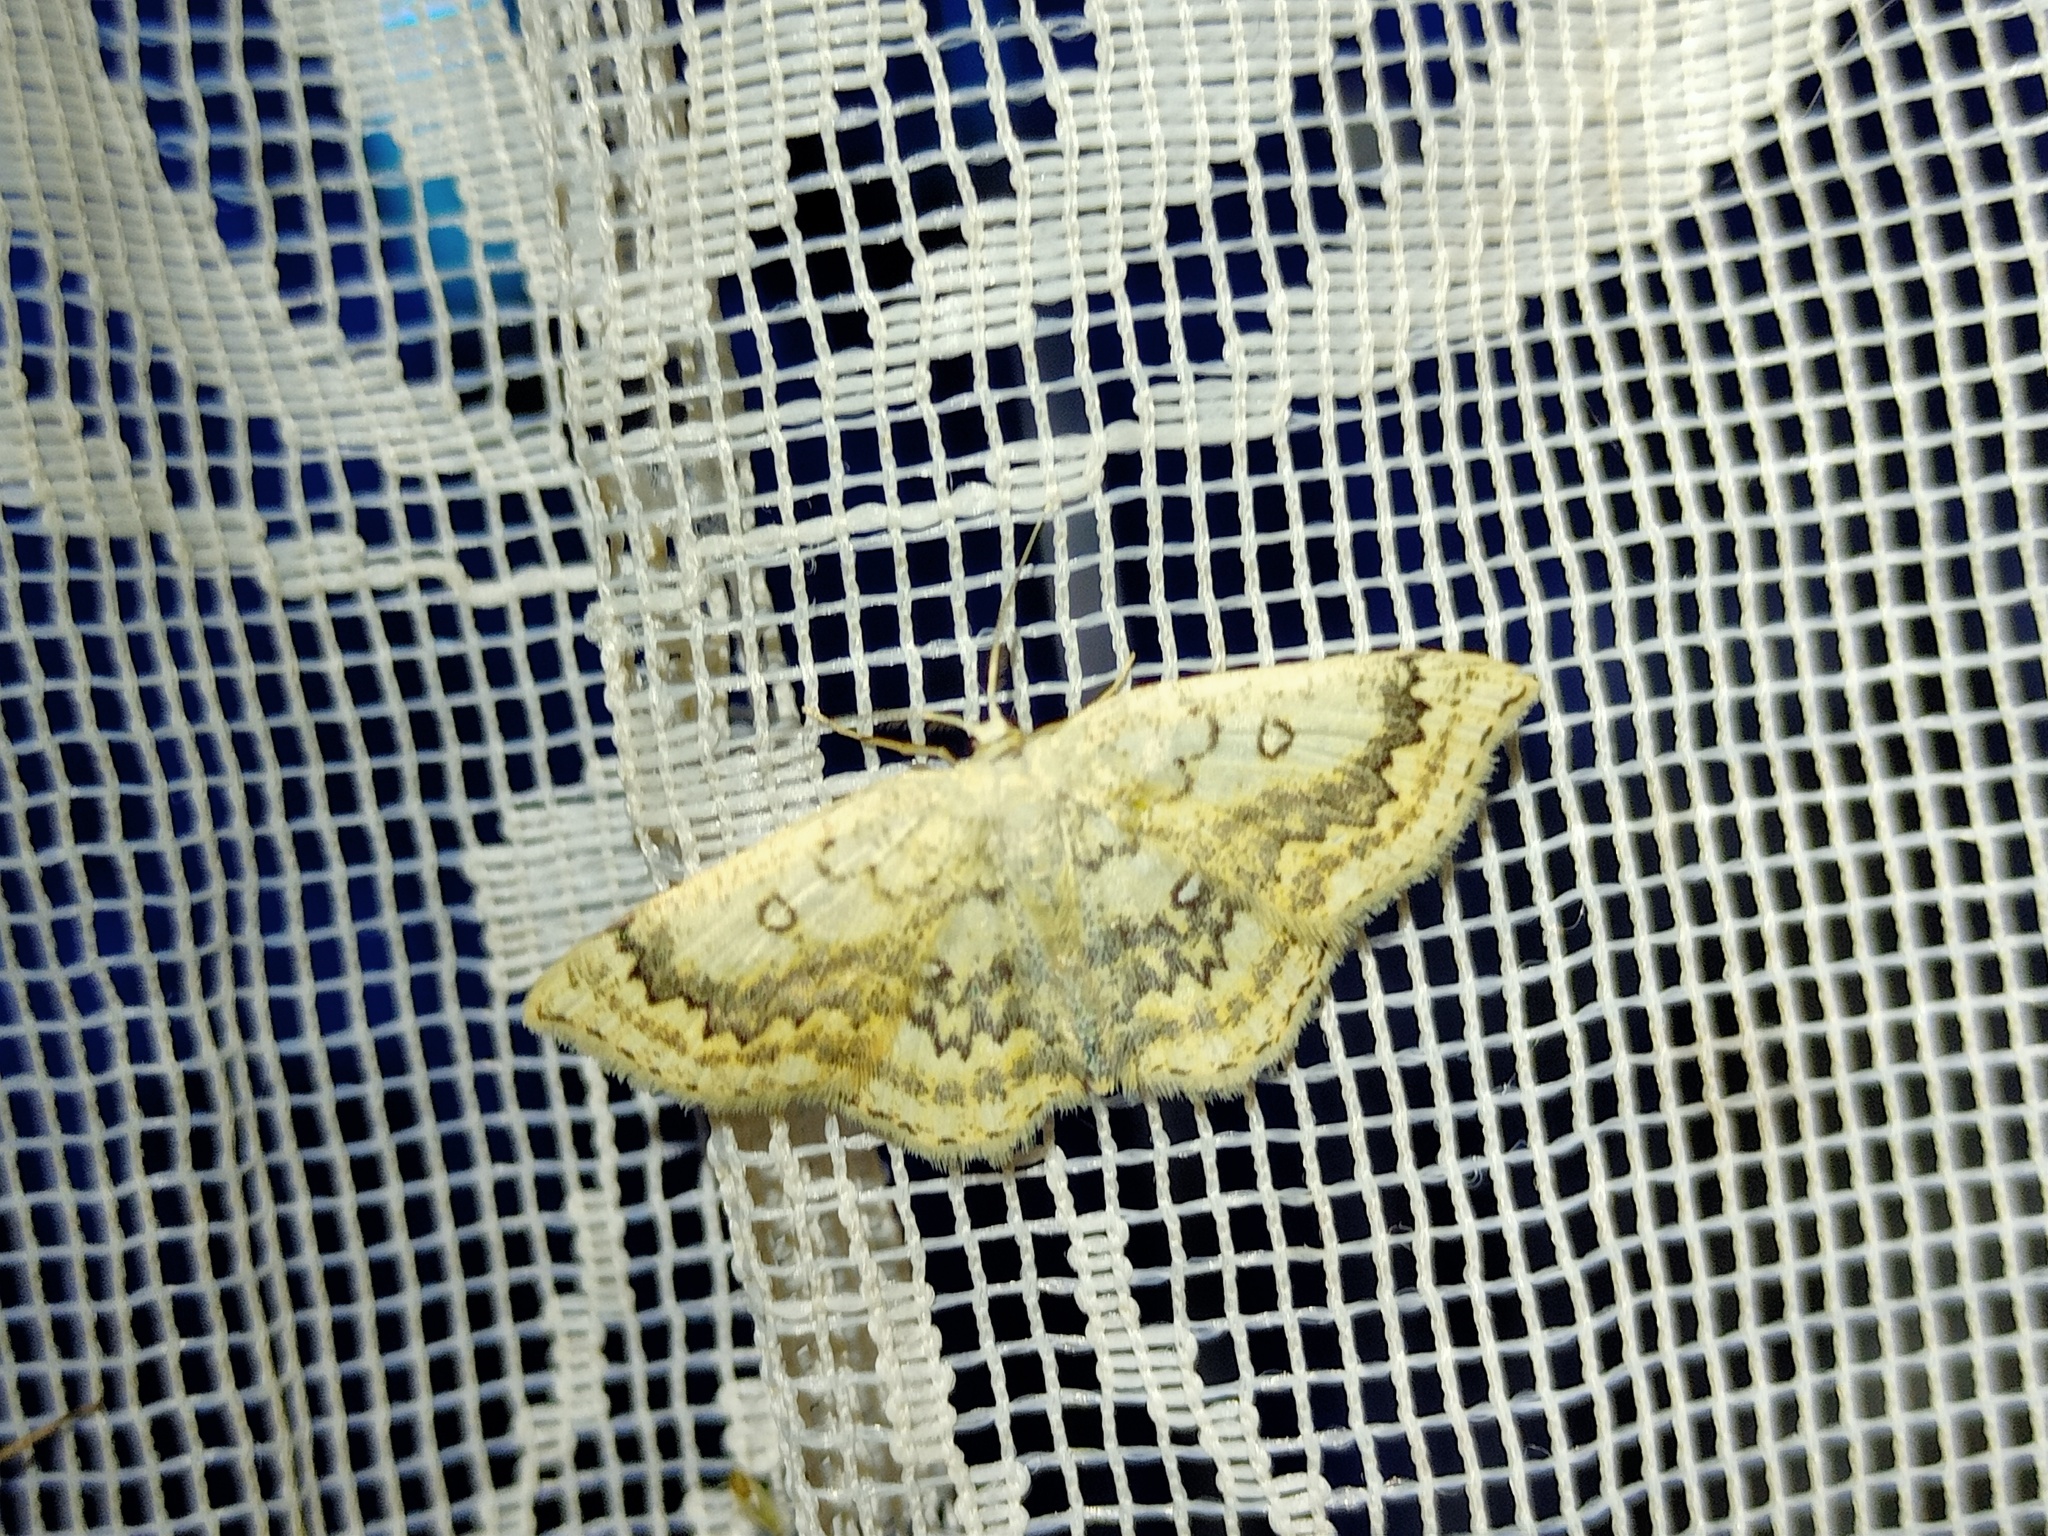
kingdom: Animalia
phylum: Arthropoda
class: Insecta
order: Lepidoptera
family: Geometridae
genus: Cyclophora
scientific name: Cyclophora annularia
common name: Mocha
